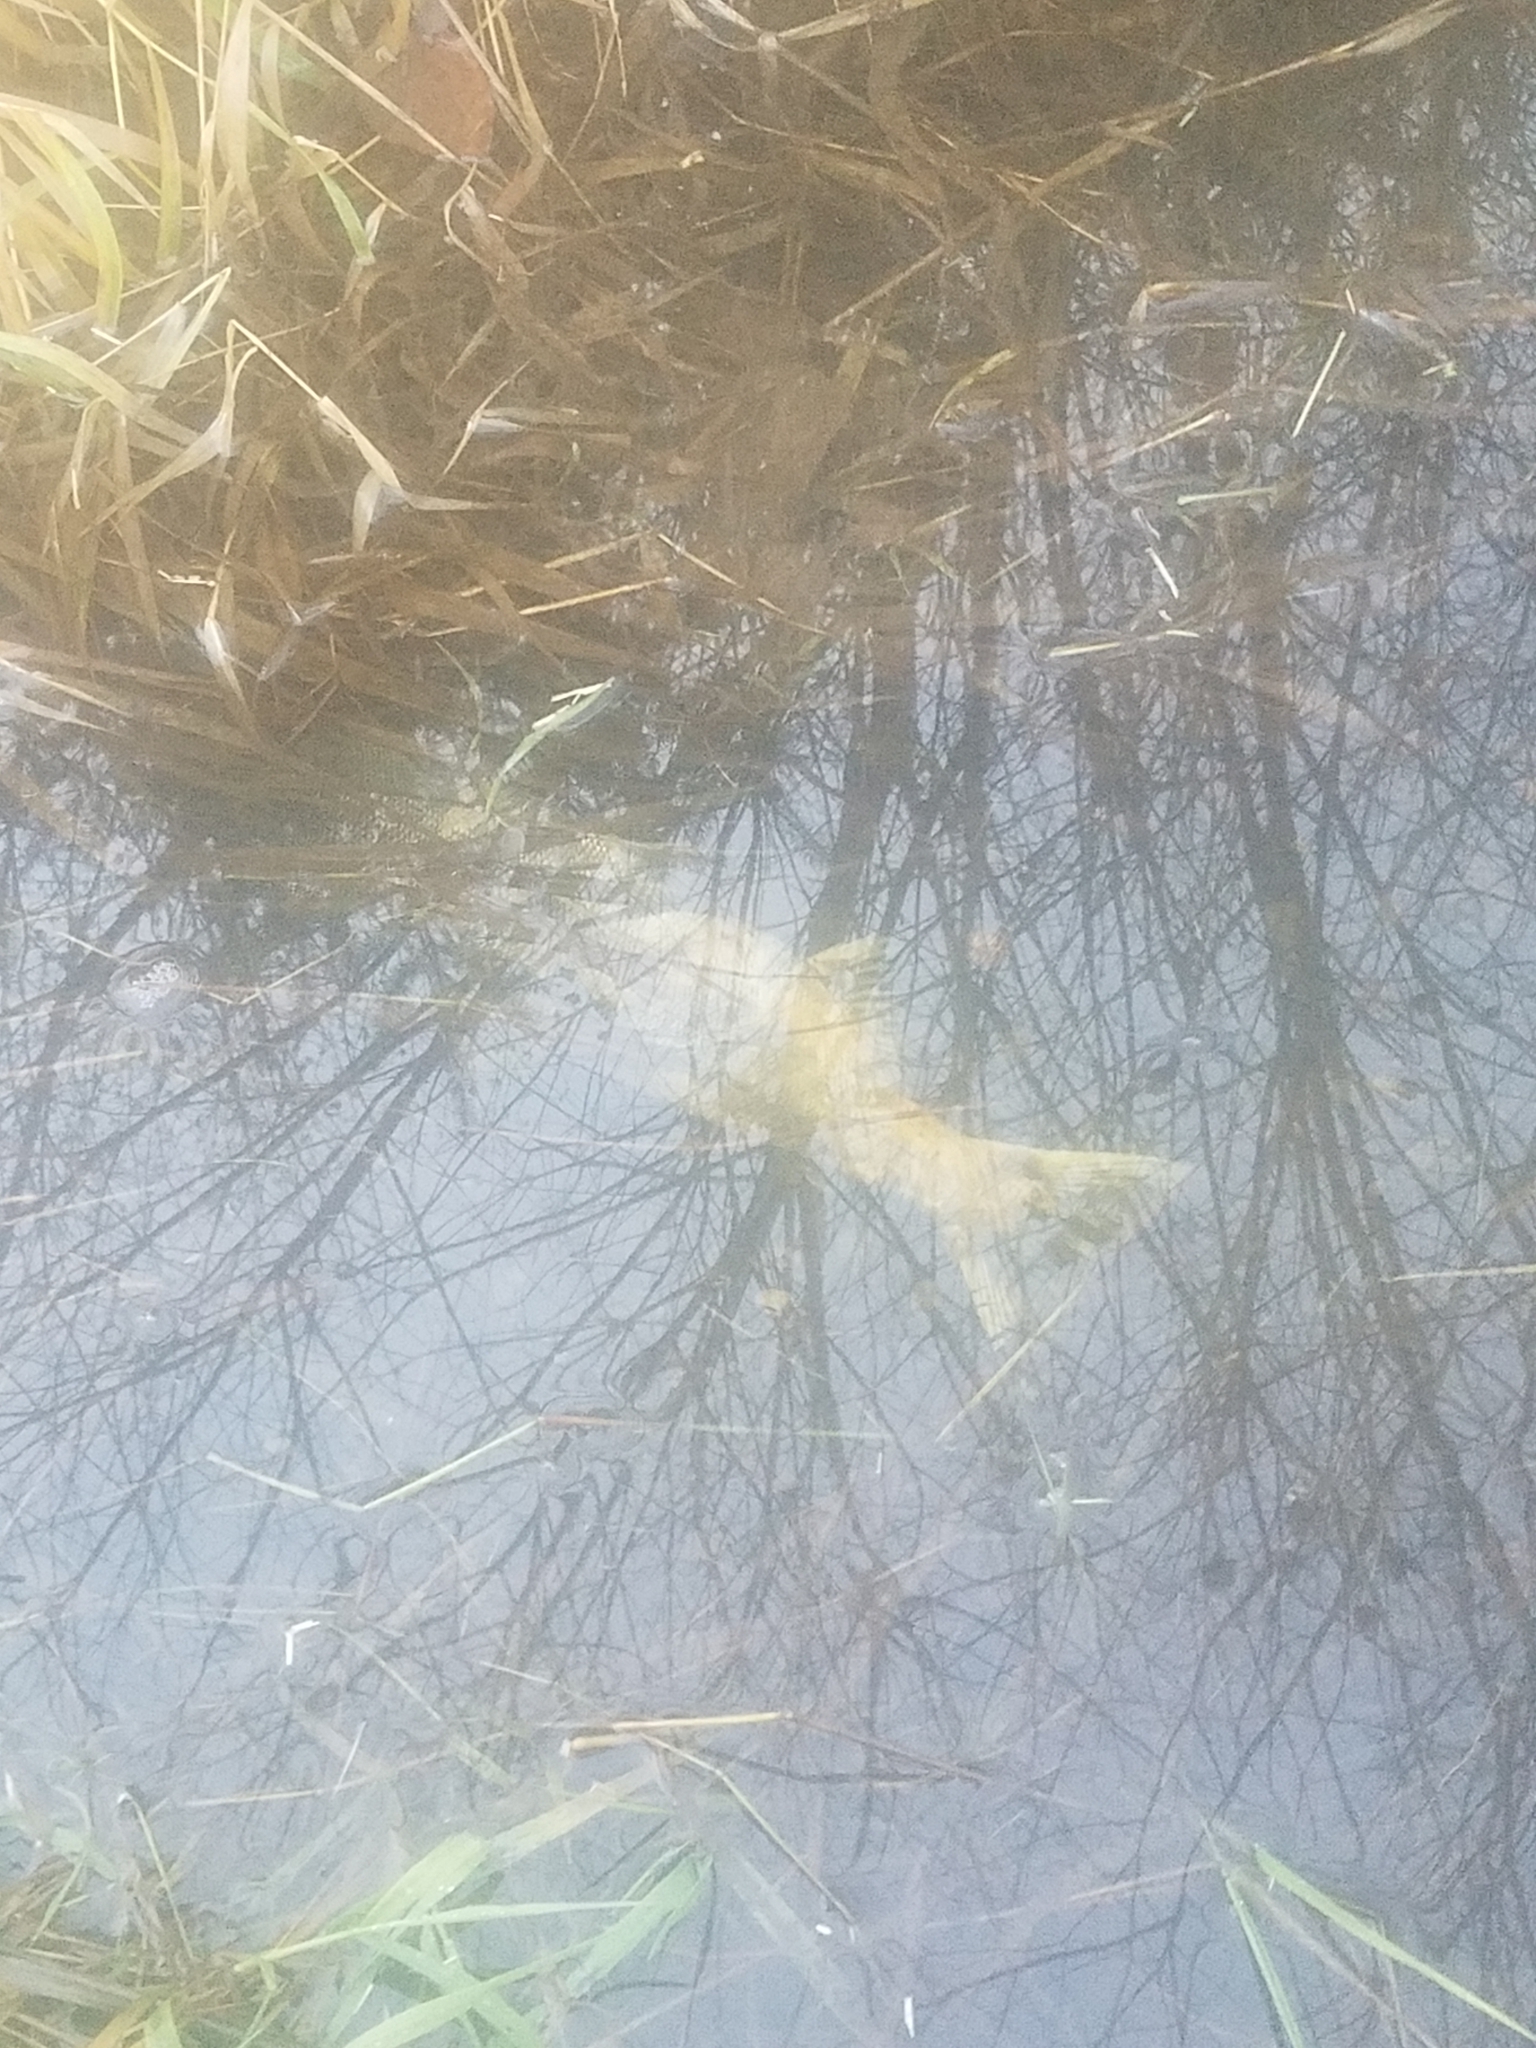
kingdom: Animalia
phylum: Chordata
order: Salmoniformes
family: Salmonidae
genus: Oncorhynchus
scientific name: Oncorhynchus keta
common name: Chum salmon
